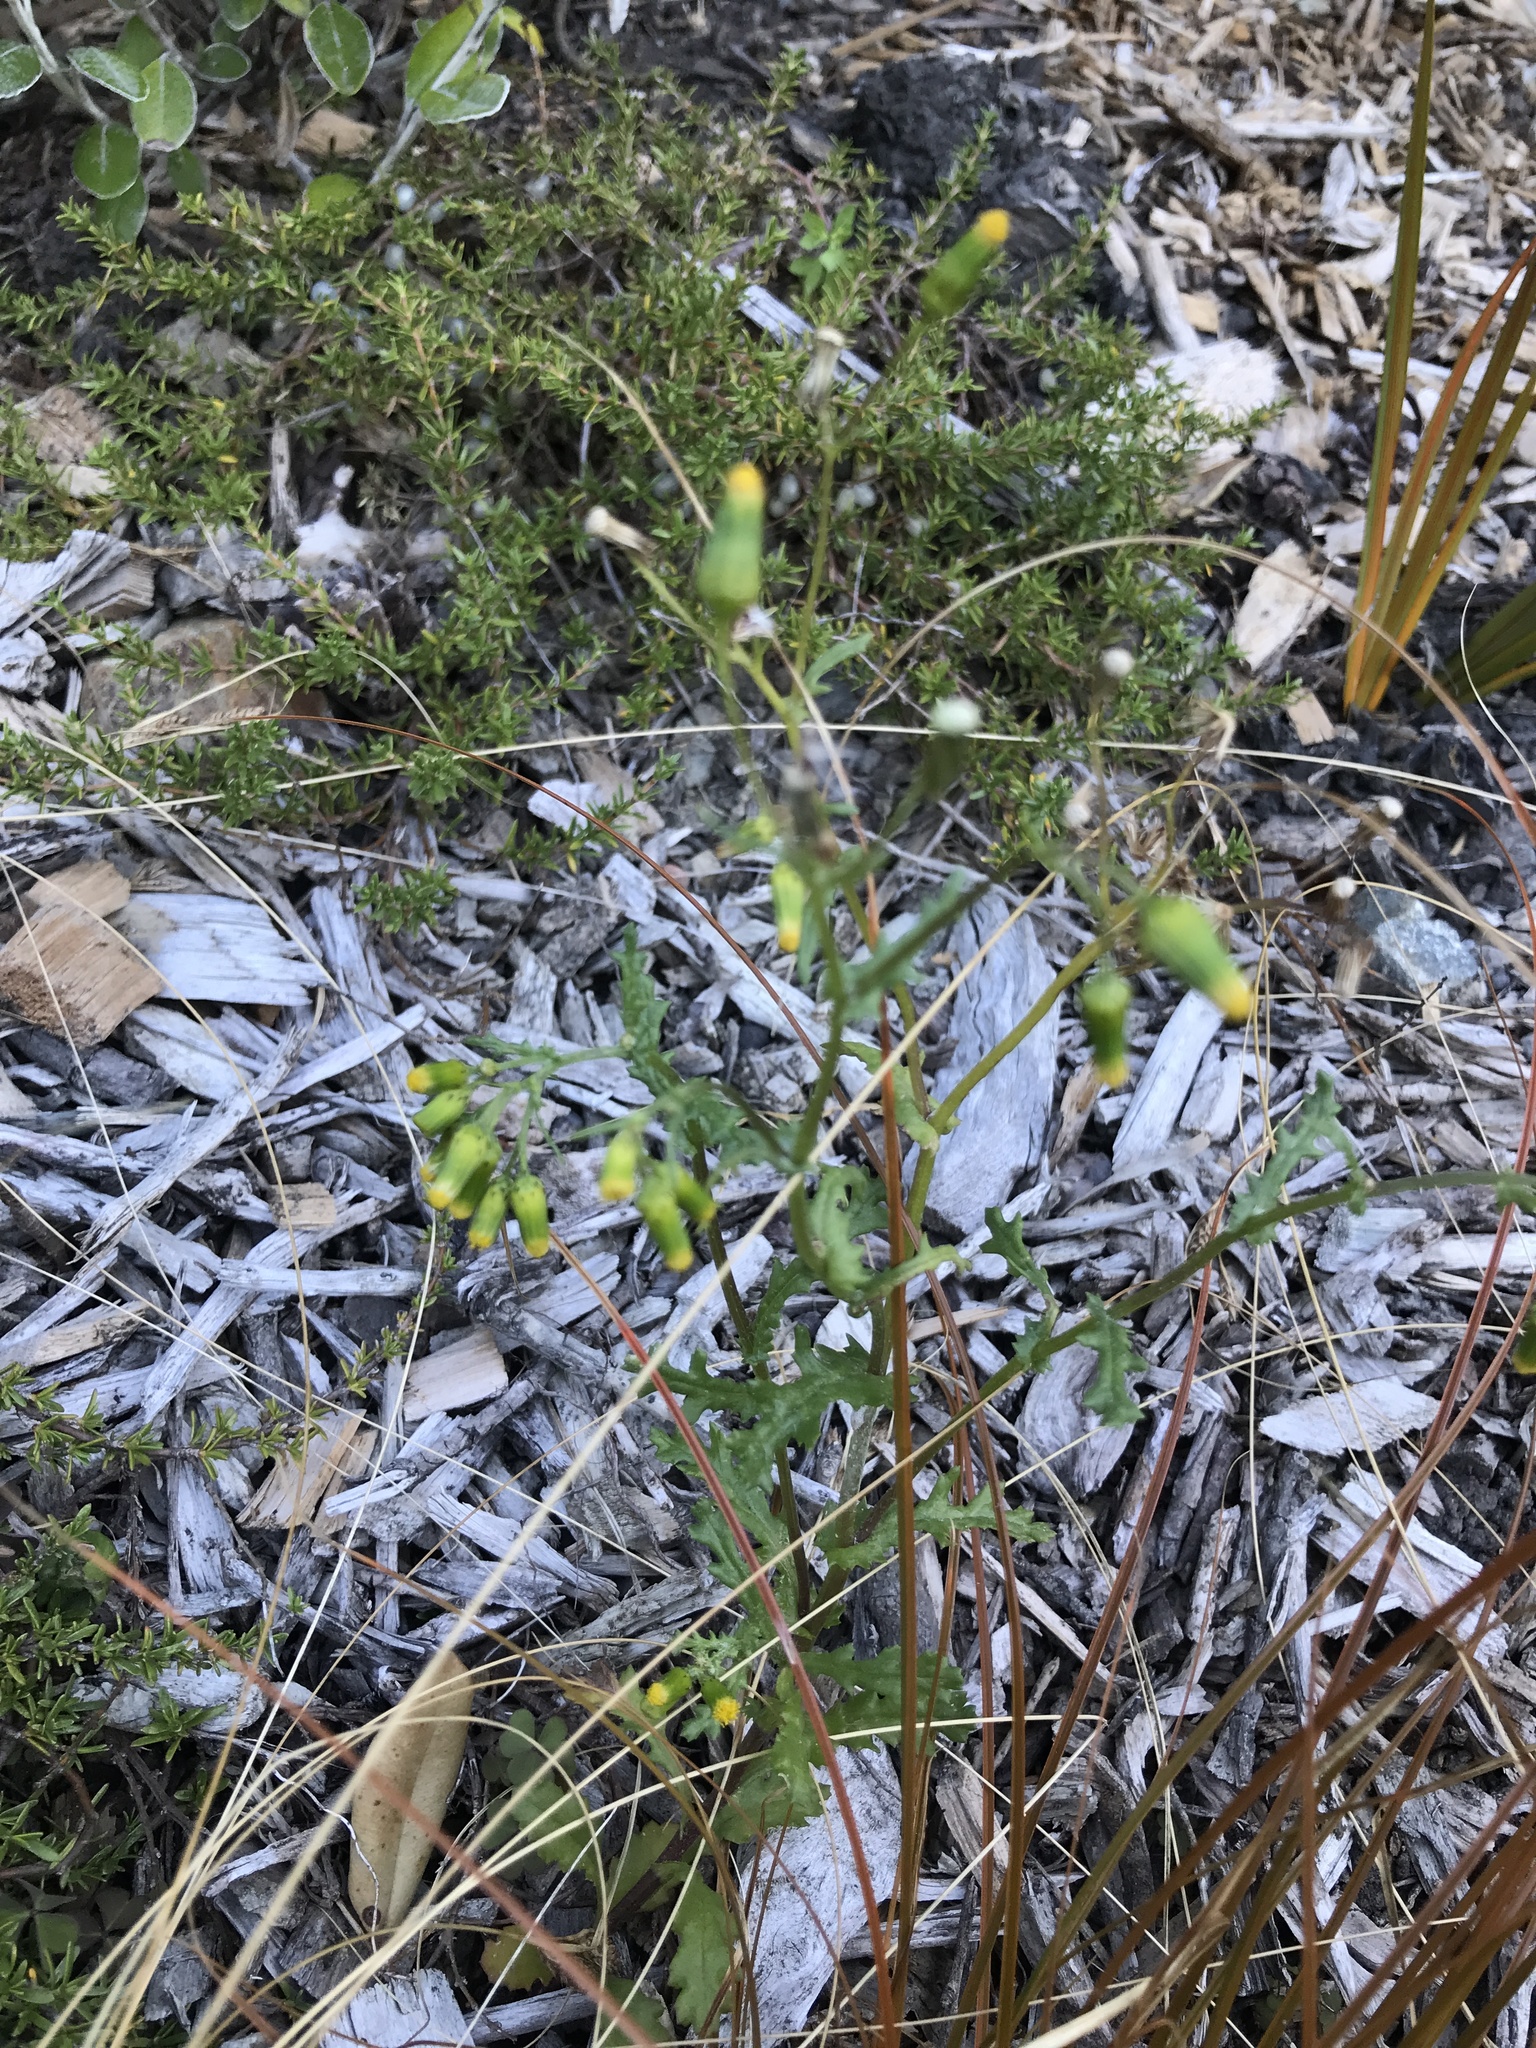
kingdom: Plantae
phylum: Tracheophyta
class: Magnoliopsida
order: Asterales
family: Asteraceae
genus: Senecio
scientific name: Senecio vulgaris
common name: Old-man-in-the-spring
